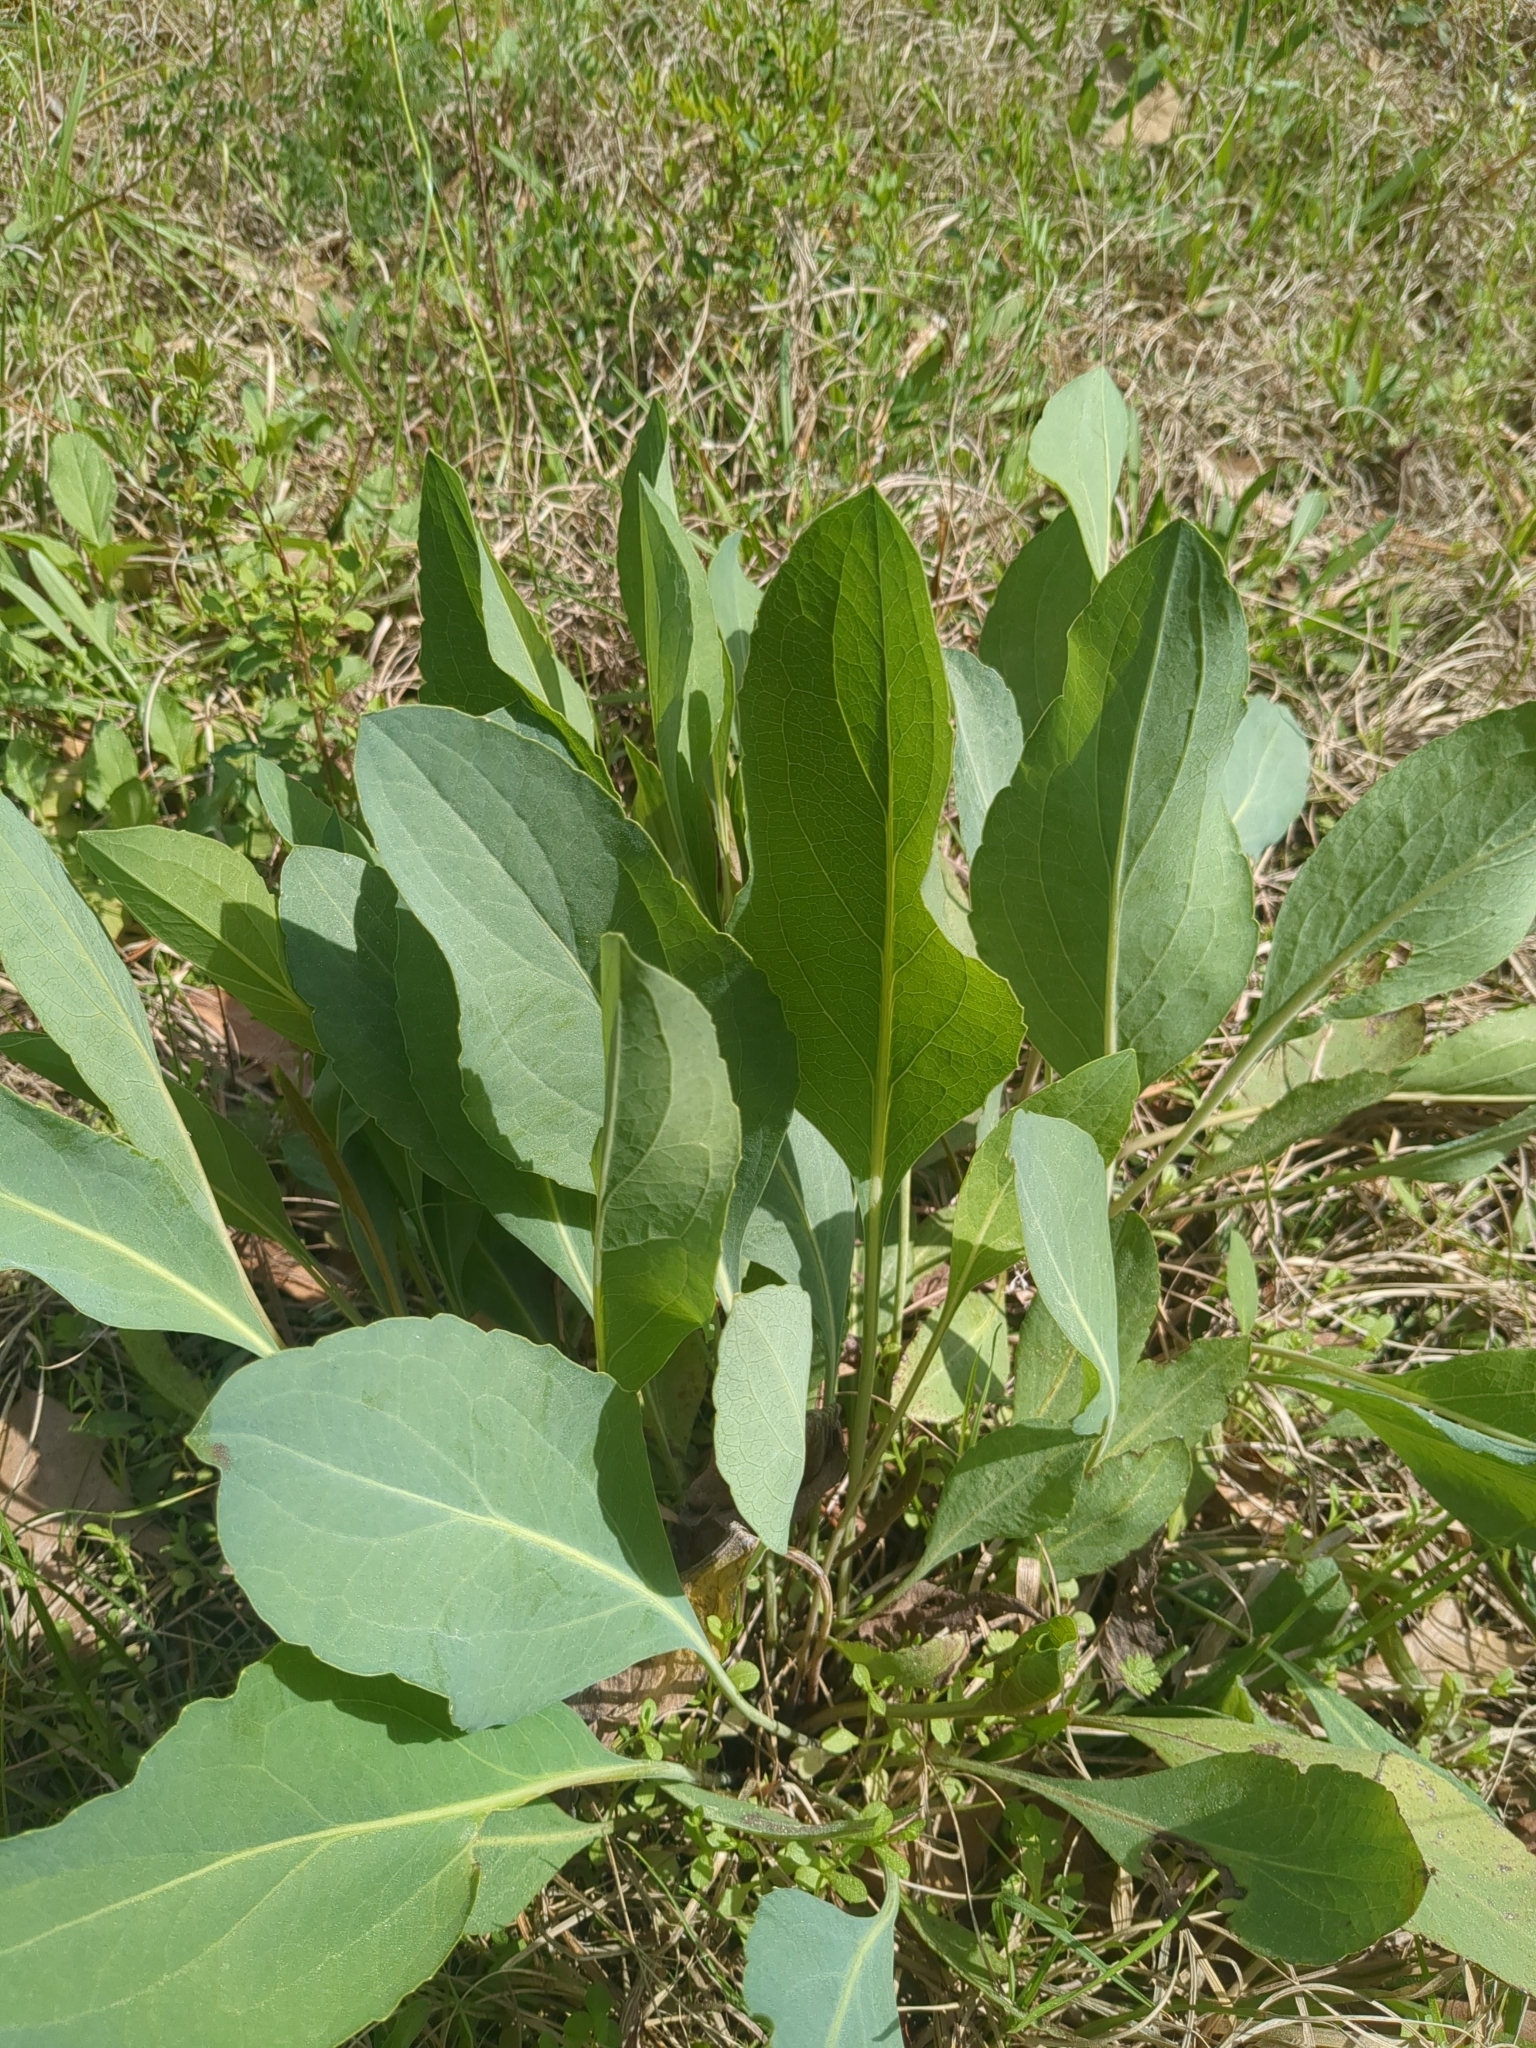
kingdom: Plantae
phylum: Tracheophyta
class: Magnoliopsida
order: Asterales
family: Asteraceae
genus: Rudbeckia
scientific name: Rudbeckia maxima
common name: Cabbage coneflower
